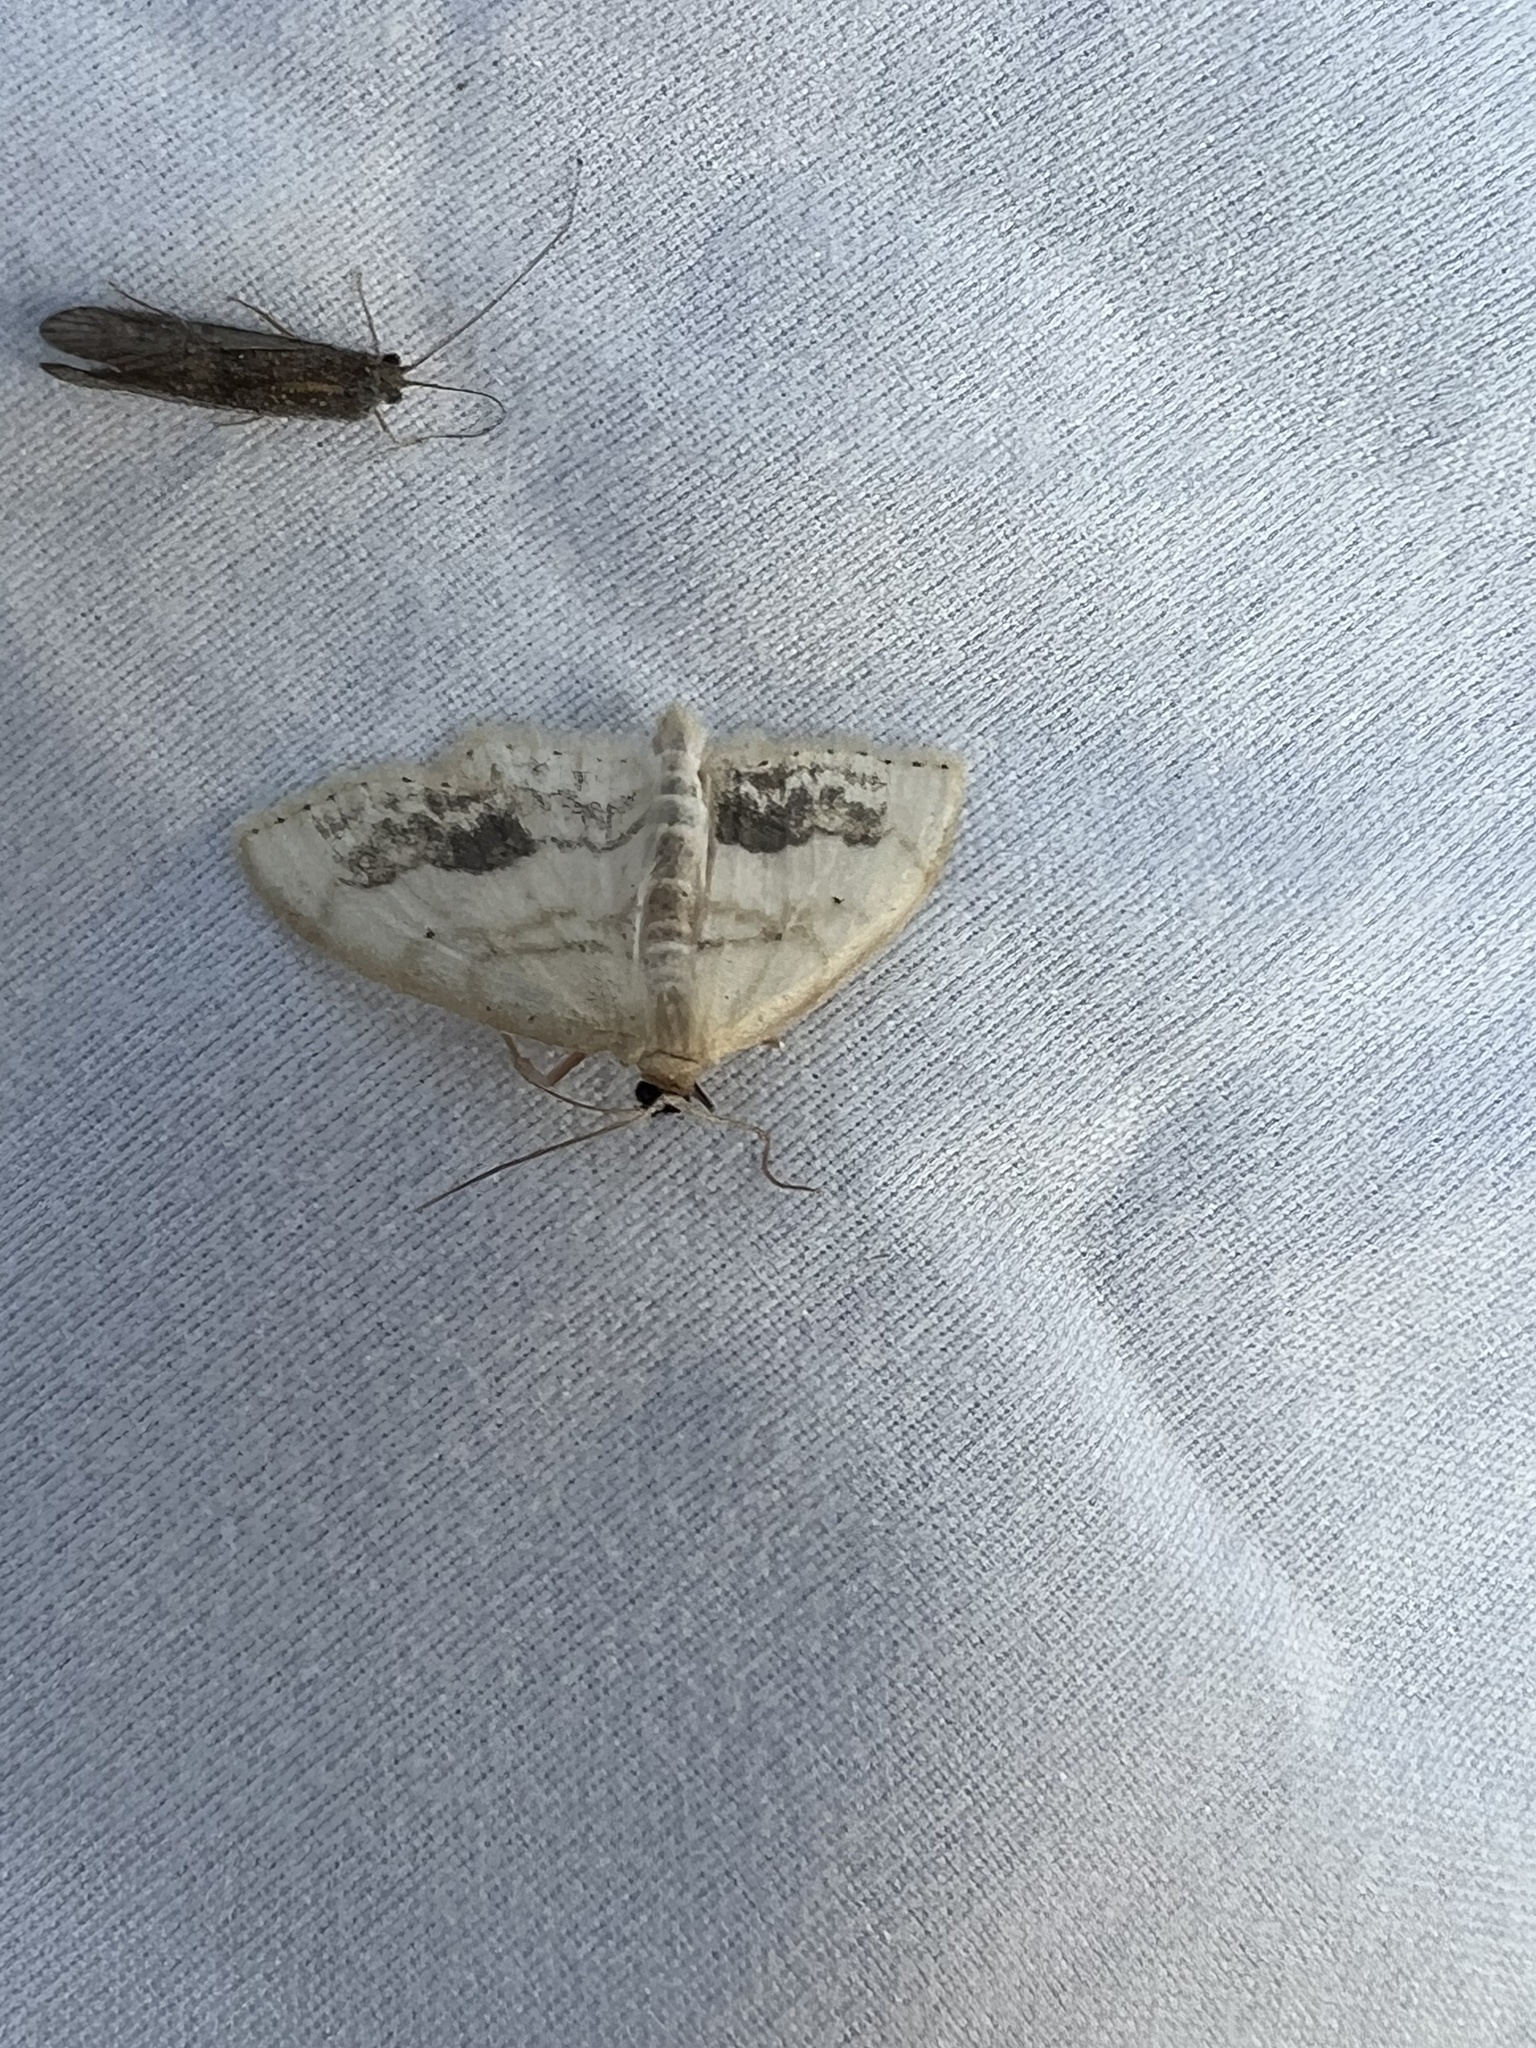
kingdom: Animalia
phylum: Arthropoda
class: Insecta
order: Lepidoptera
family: Geometridae
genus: Scopula
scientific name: Scopula limboundata
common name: Large lace border
